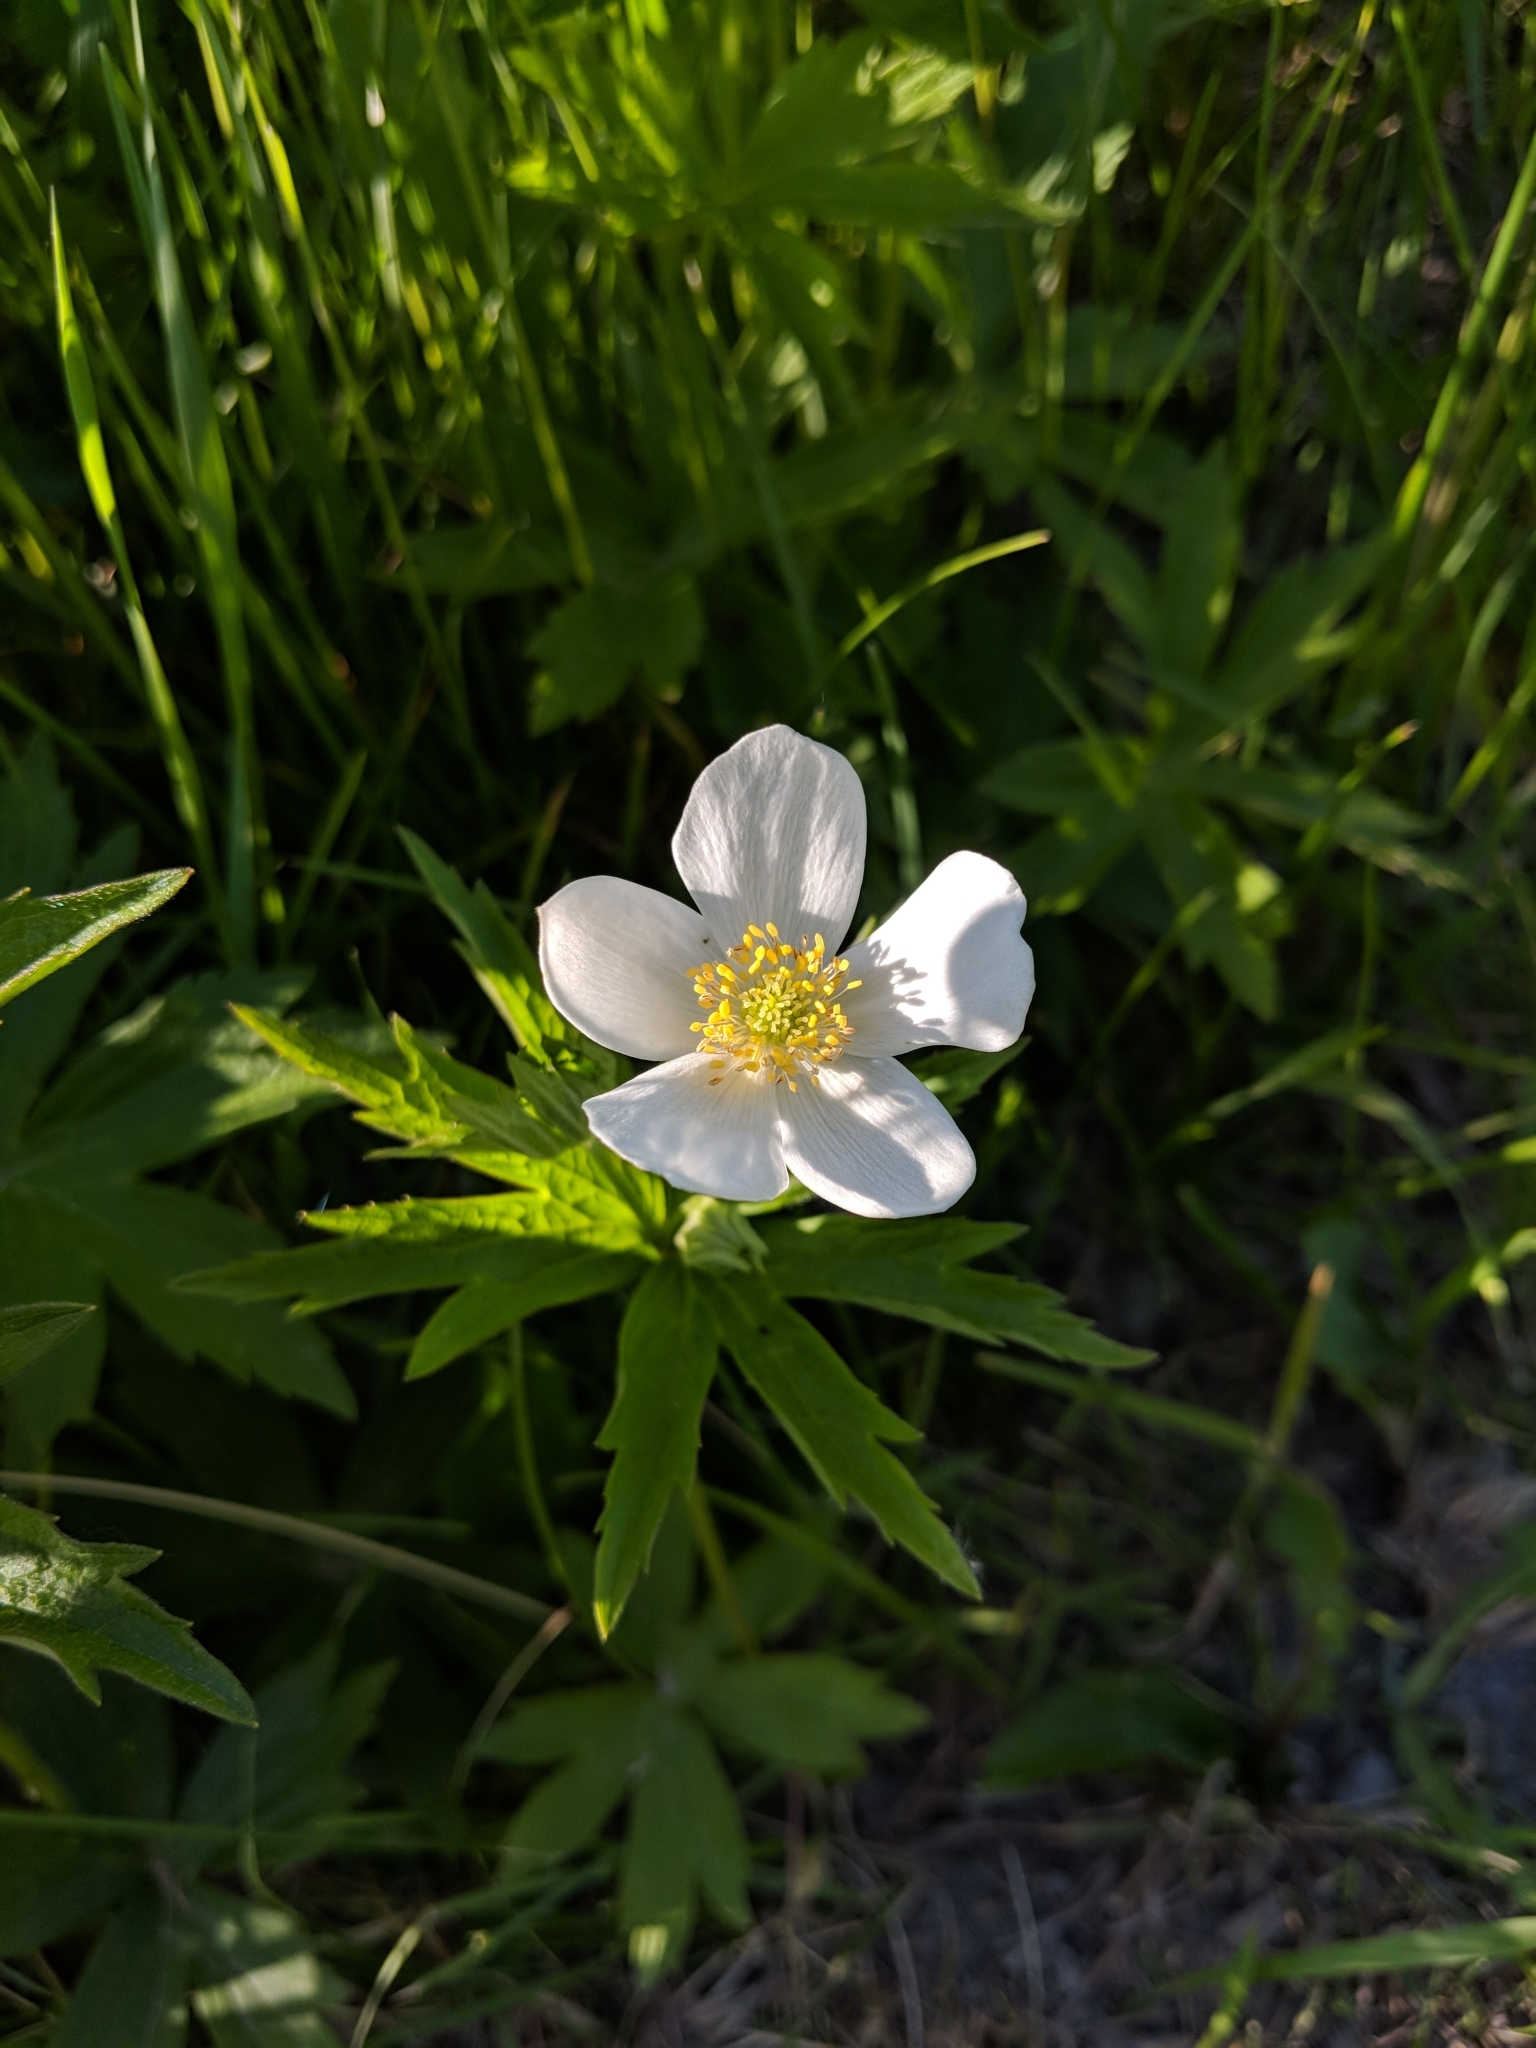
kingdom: Plantae
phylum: Tracheophyta
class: Magnoliopsida
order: Ranunculales
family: Ranunculaceae
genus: Anemonastrum
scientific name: Anemonastrum canadense
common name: Canada anemone
